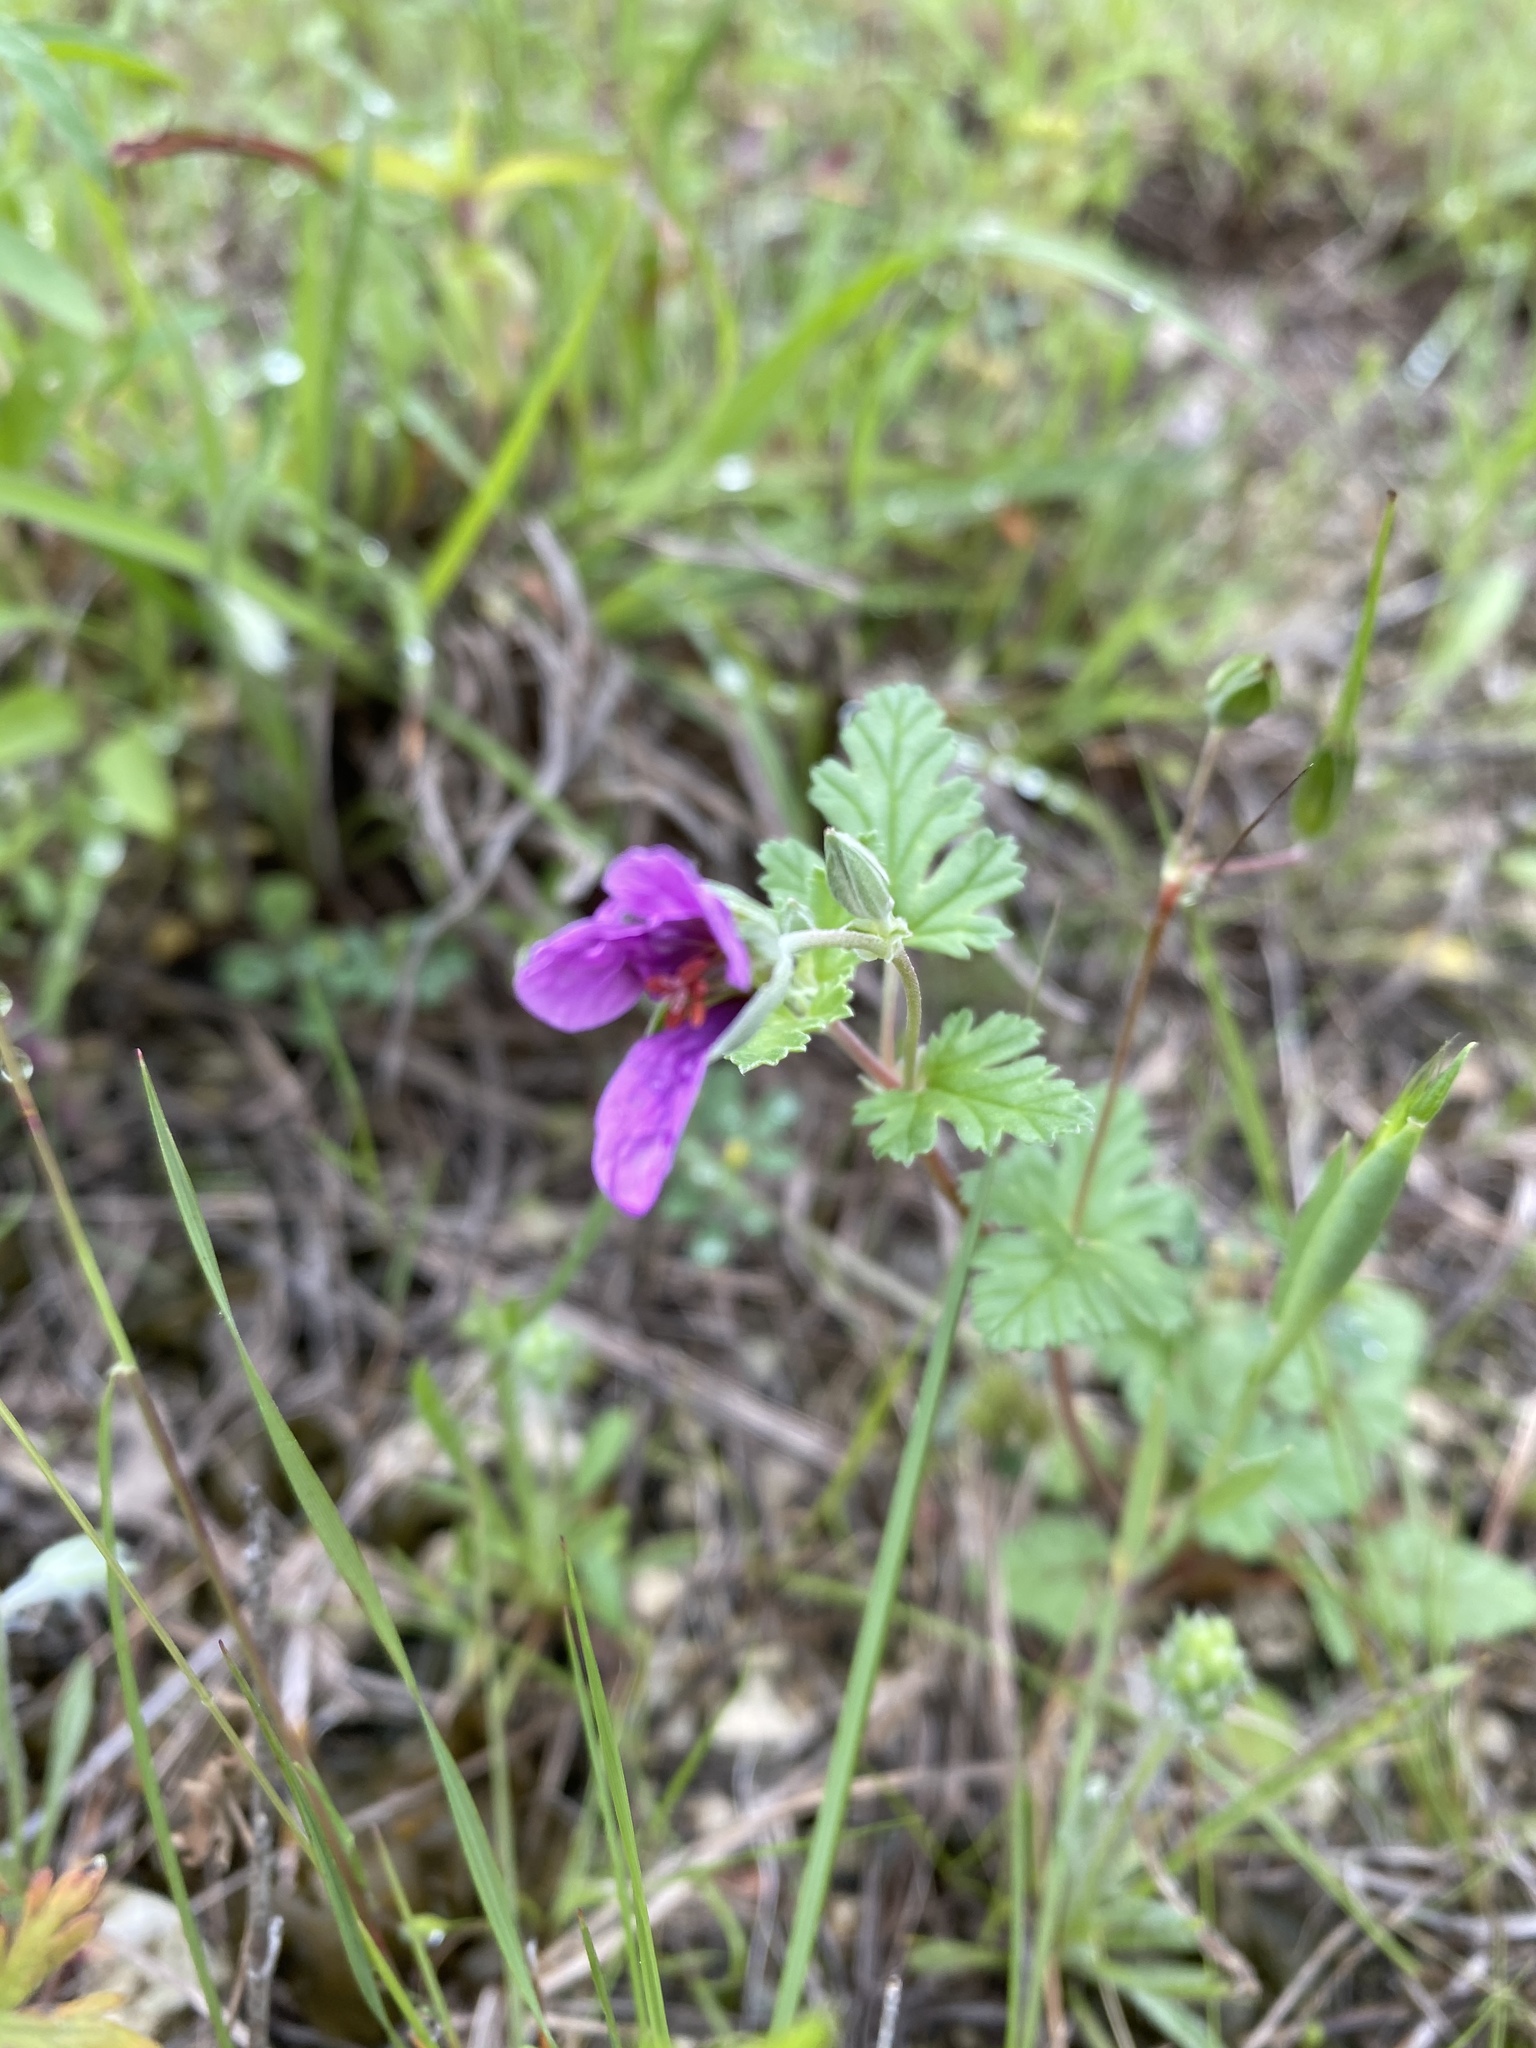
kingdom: Plantae
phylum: Tracheophyta
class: Magnoliopsida
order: Geraniales
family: Geraniaceae
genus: Erodium
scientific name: Erodium texanum
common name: Texas stork's-bill
